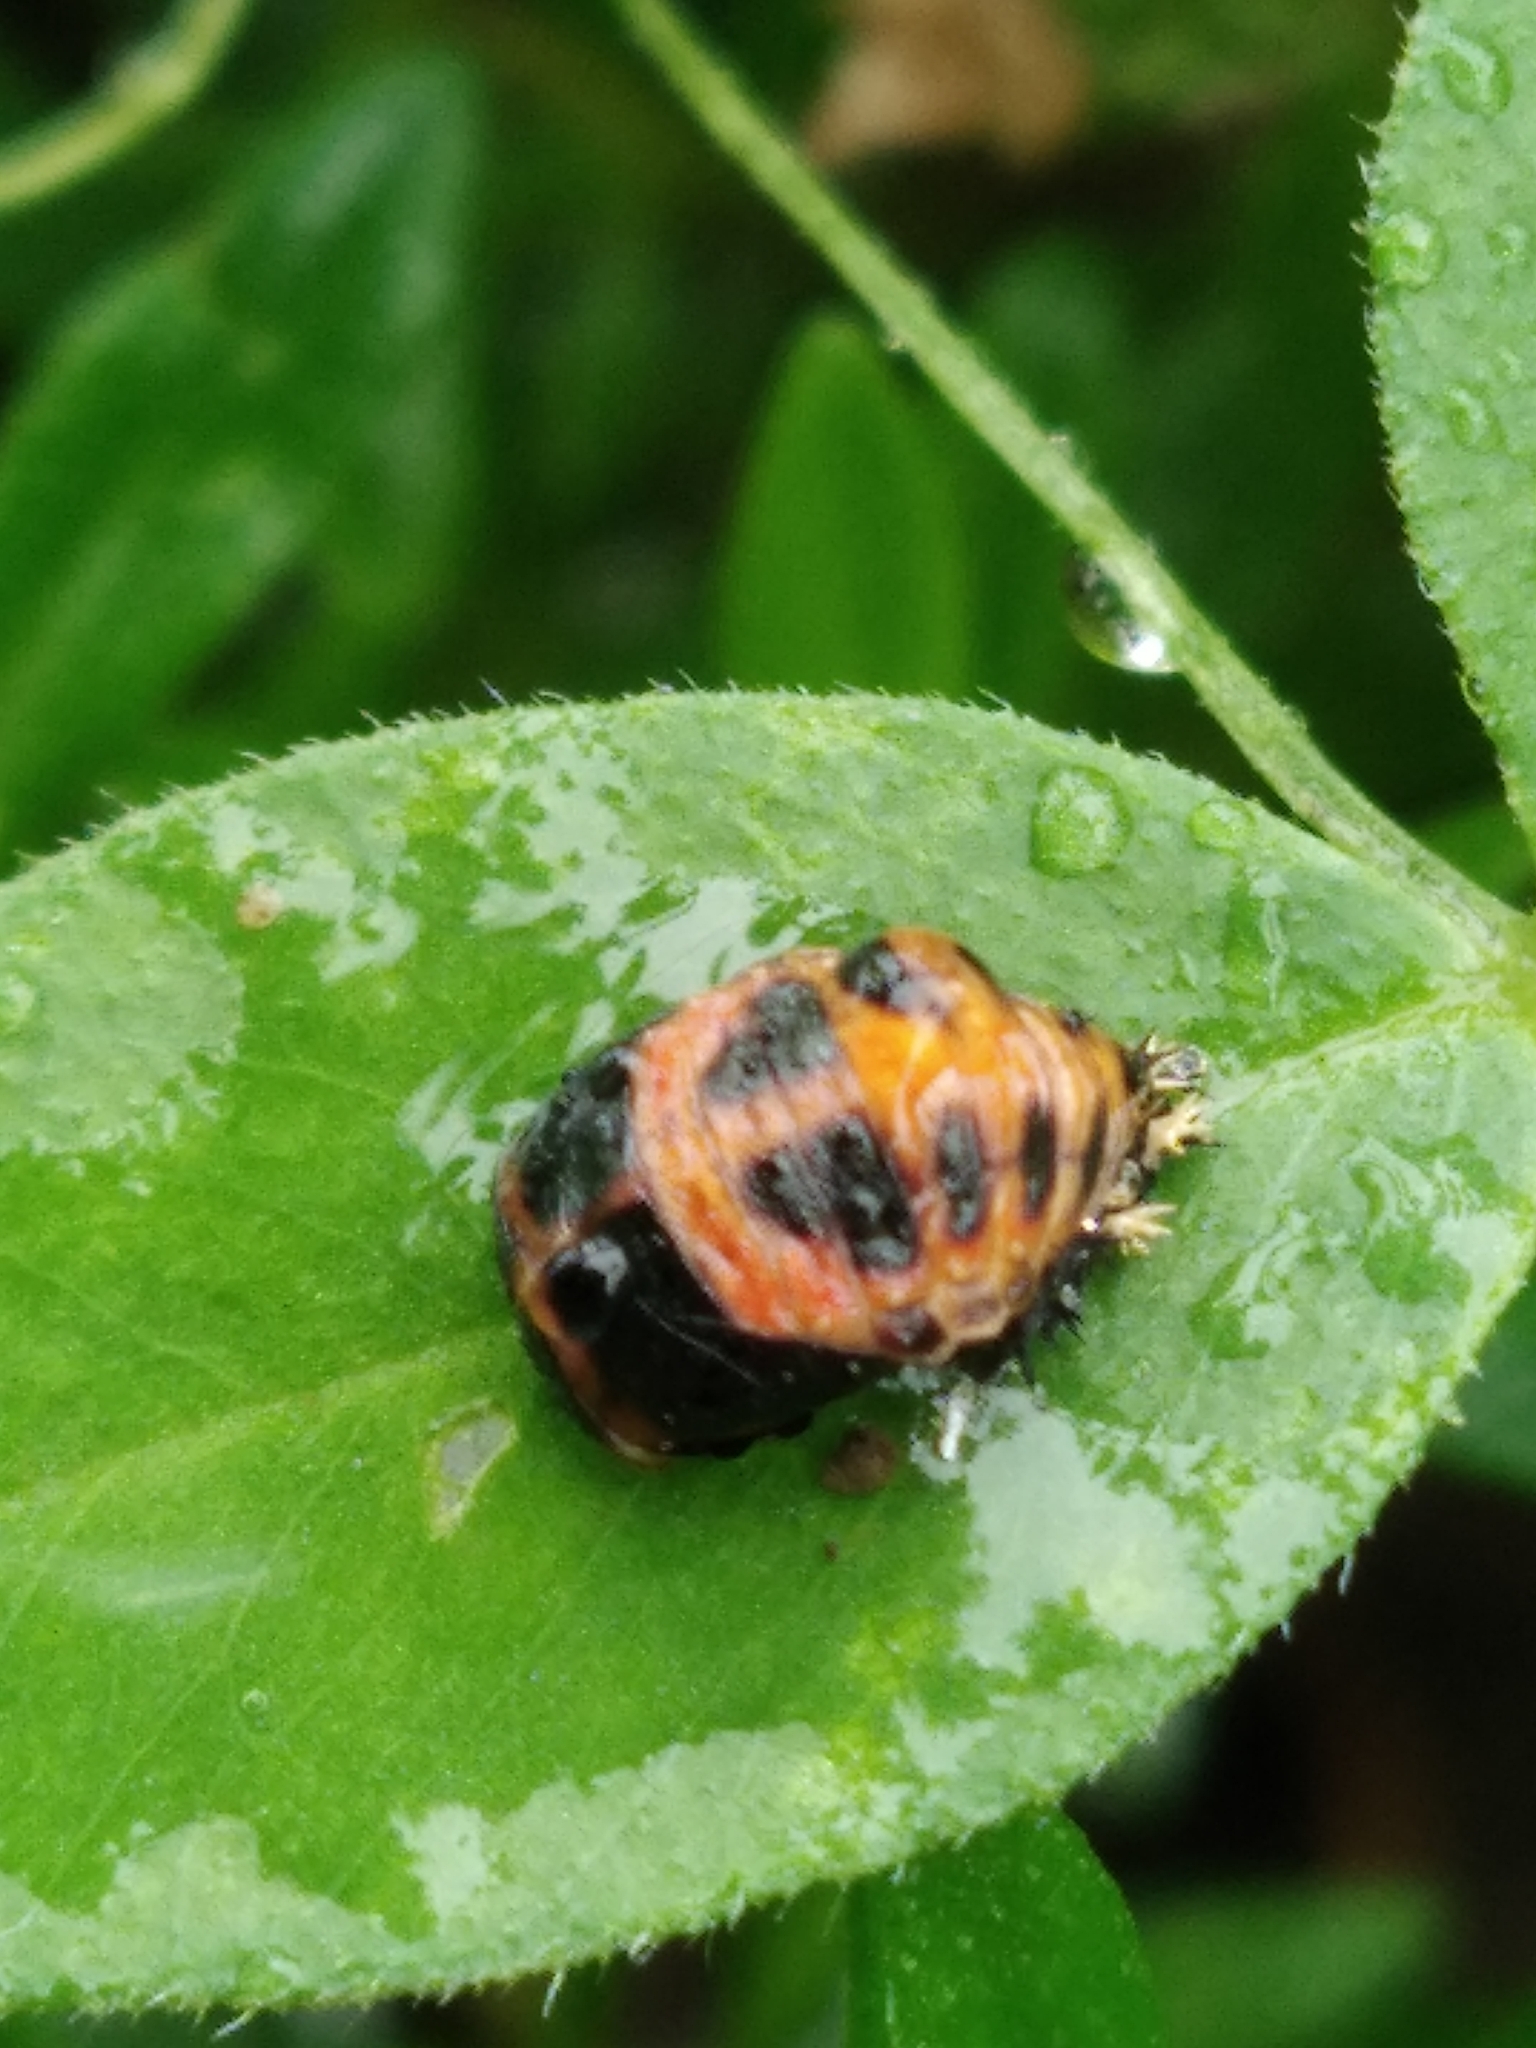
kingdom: Animalia
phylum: Arthropoda
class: Insecta
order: Coleoptera
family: Coccinellidae
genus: Harmonia
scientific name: Harmonia axyridis
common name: Harlequin ladybird
